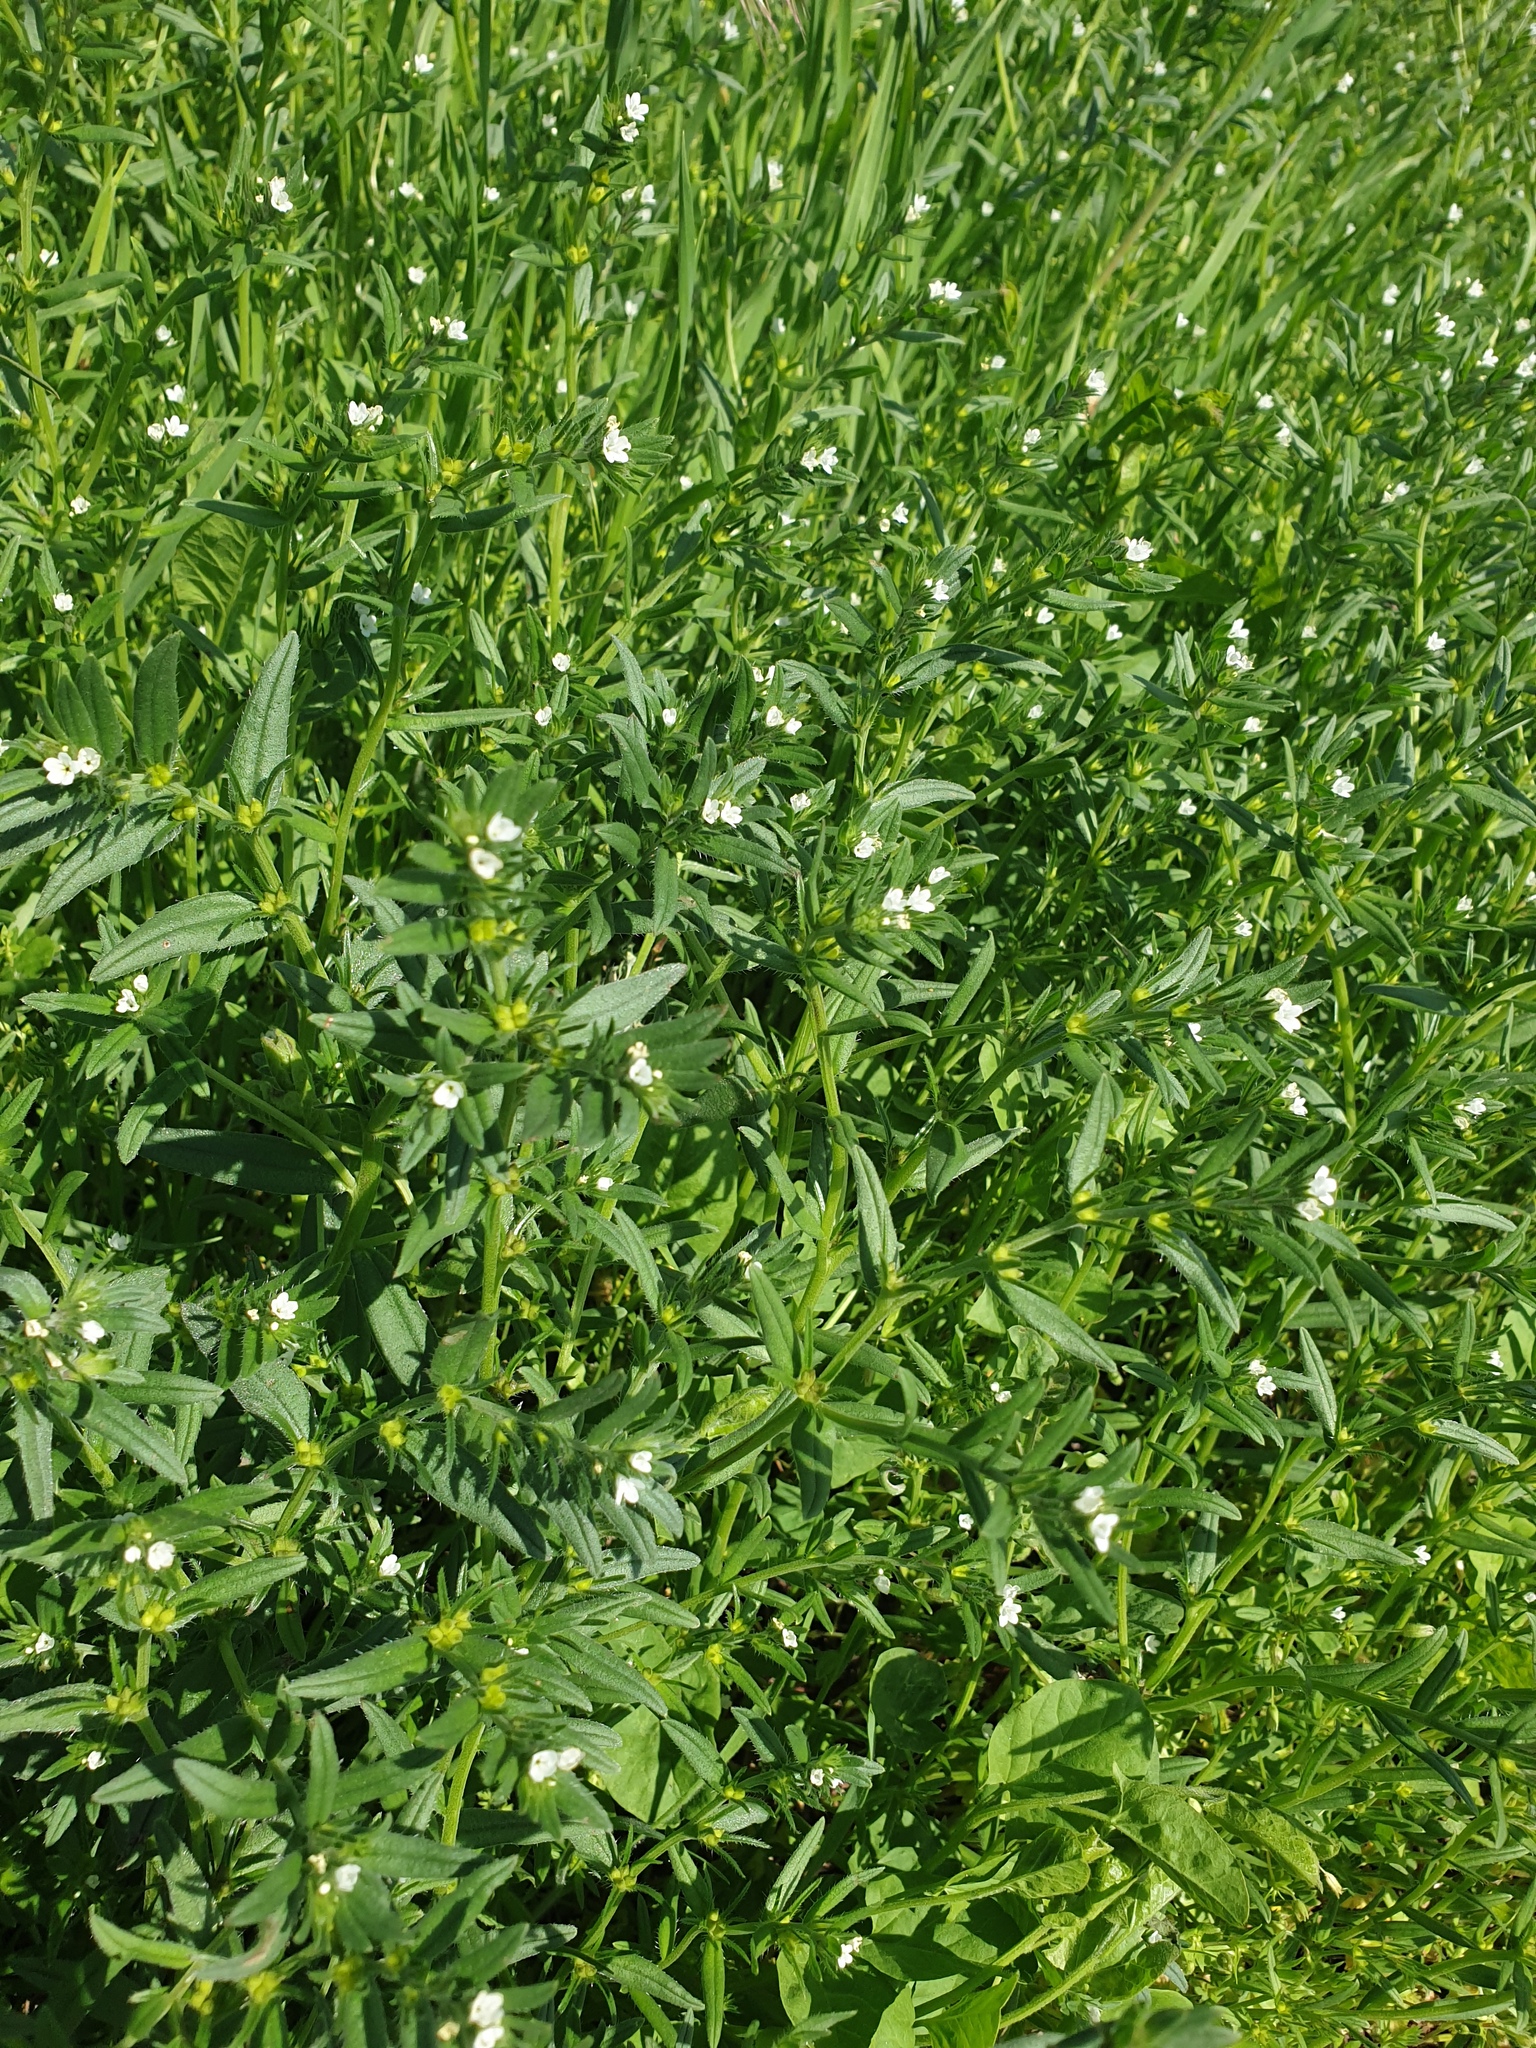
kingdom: Plantae
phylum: Tracheophyta
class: Magnoliopsida
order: Boraginales
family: Boraginaceae
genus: Buglossoides
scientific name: Buglossoides arvensis
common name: Corn gromwell
